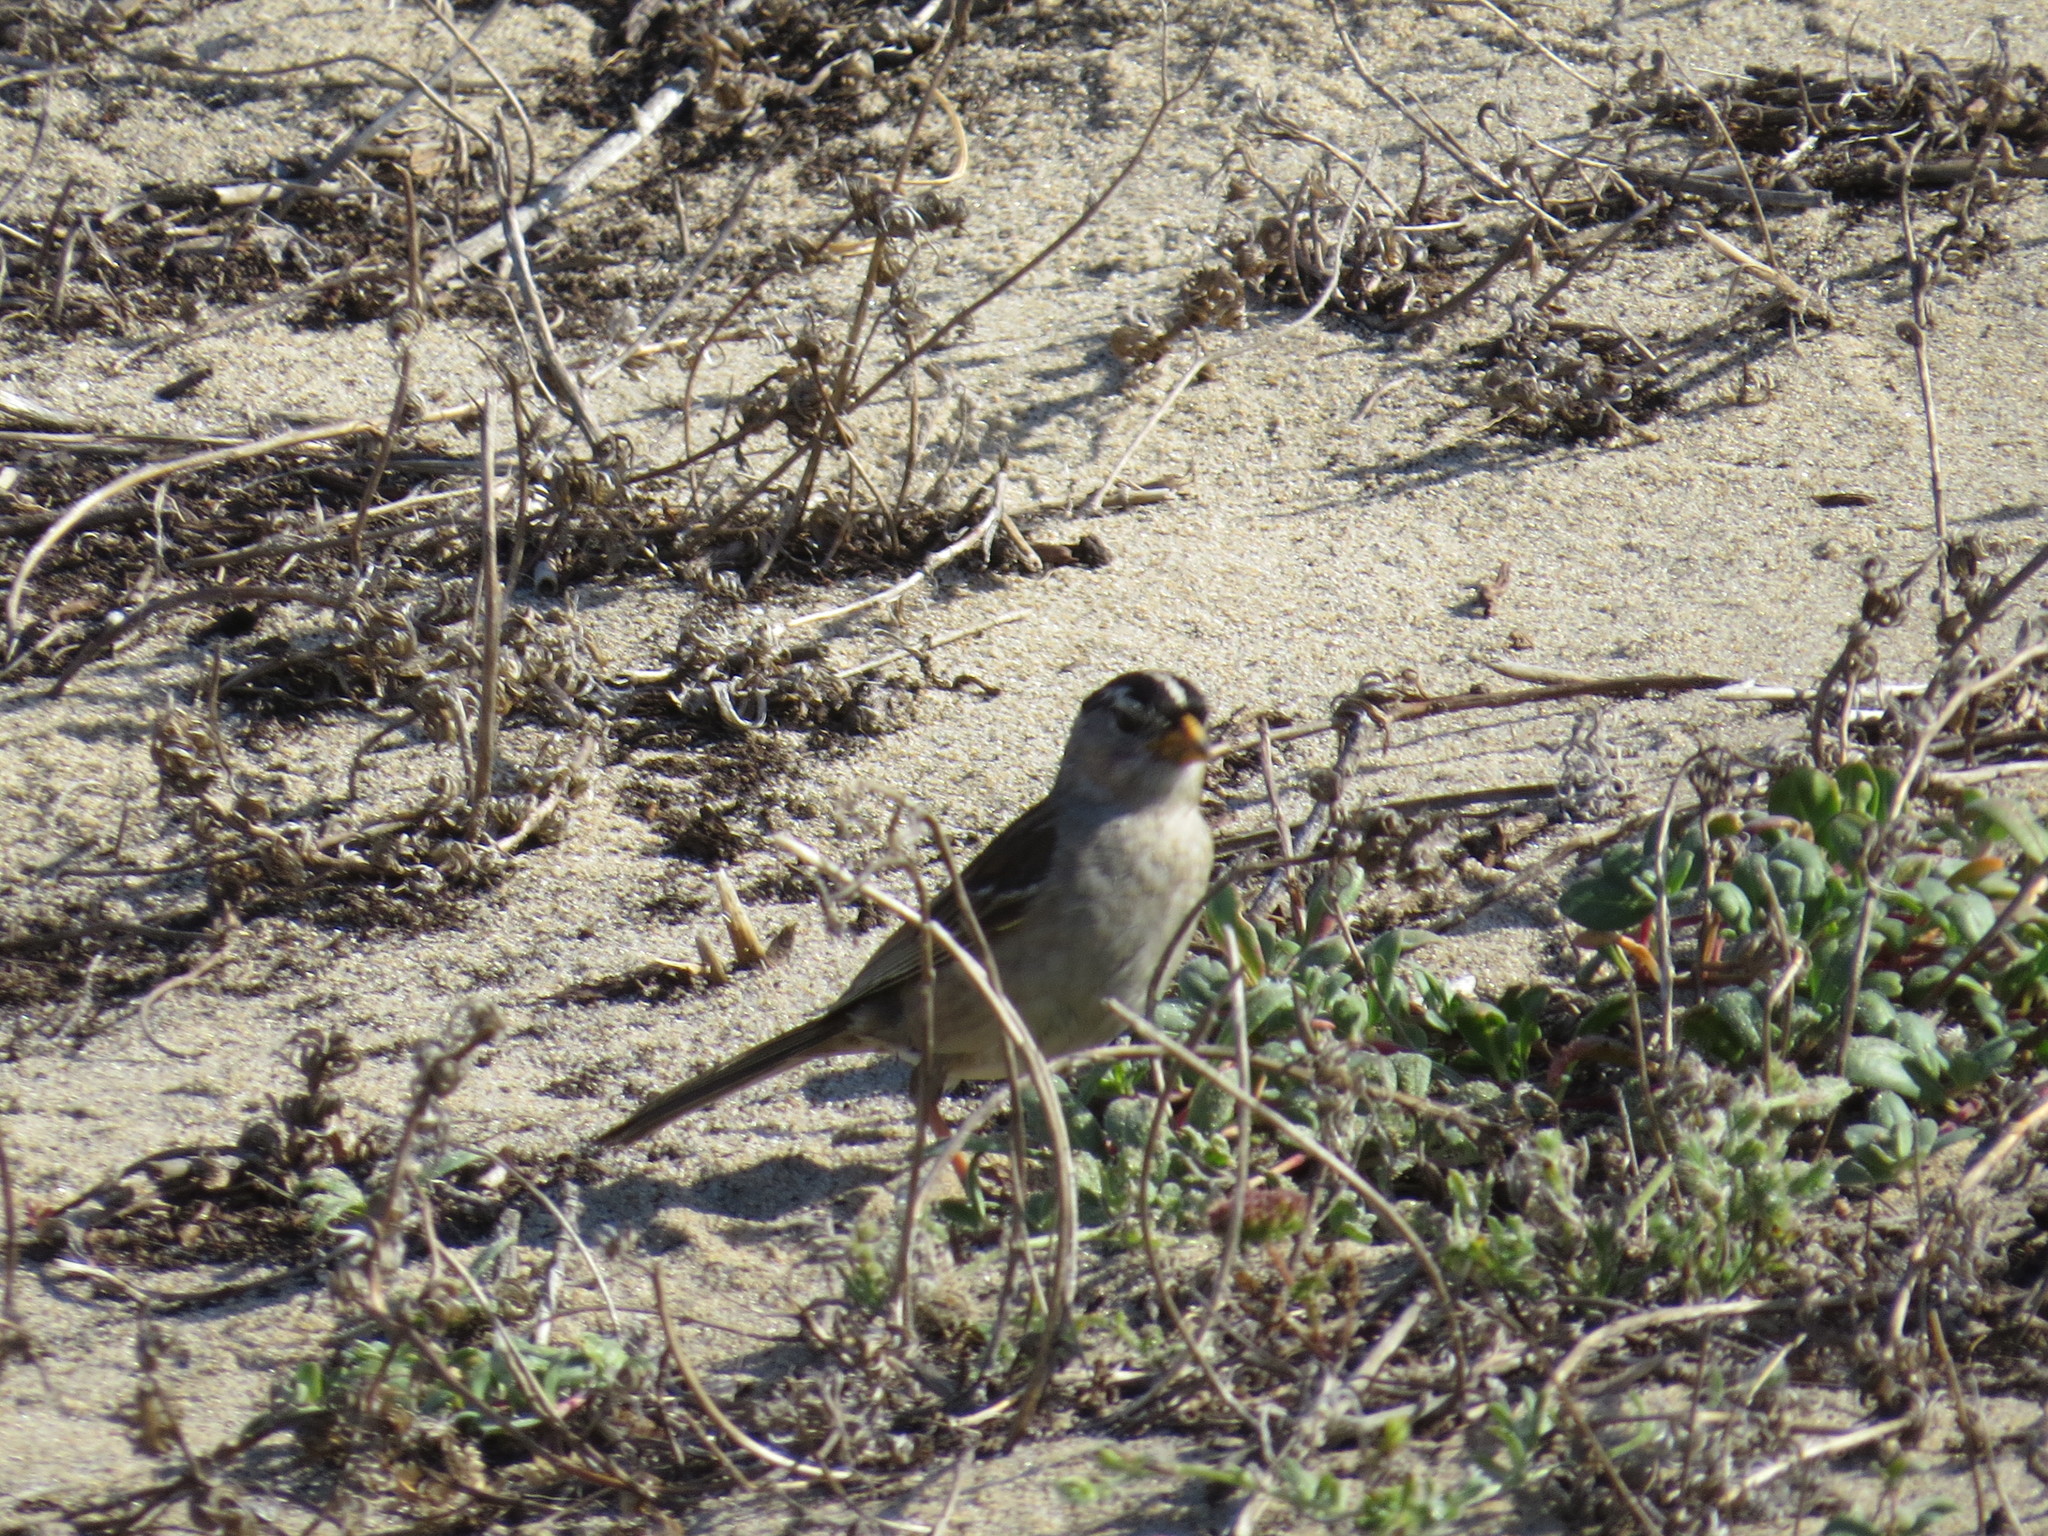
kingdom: Animalia
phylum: Chordata
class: Aves
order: Passeriformes
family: Passerellidae
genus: Zonotrichia
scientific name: Zonotrichia leucophrys
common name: White-crowned sparrow
